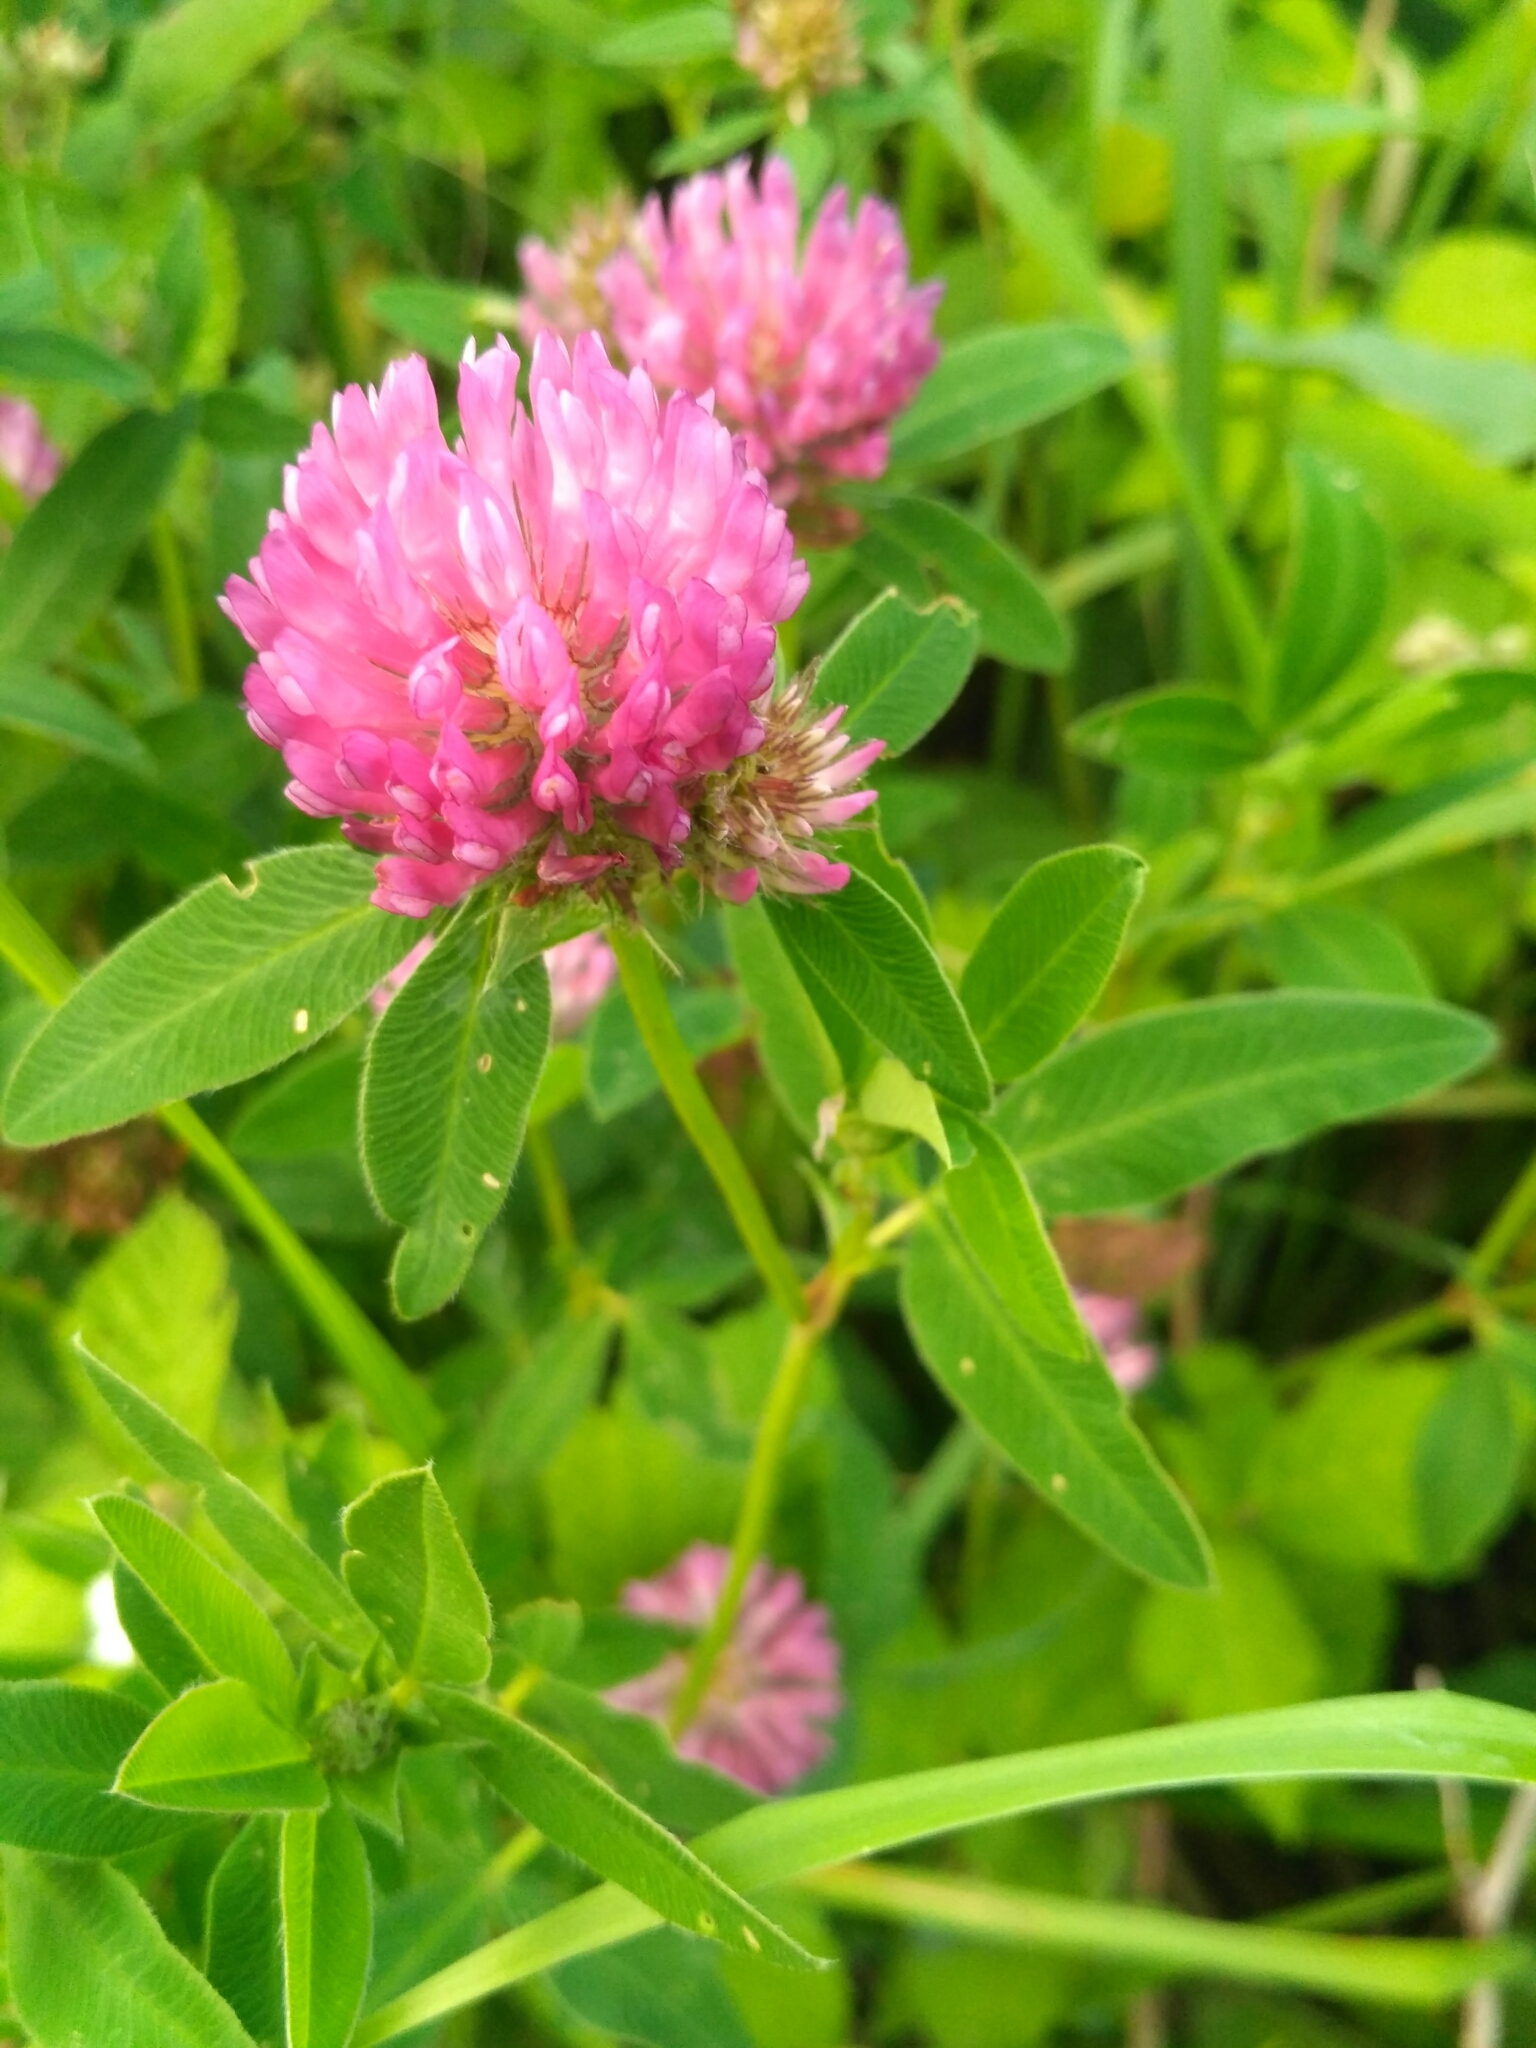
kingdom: Plantae
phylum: Tracheophyta
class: Magnoliopsida
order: Fabales
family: Fabaceae
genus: Trifolium
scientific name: Trifolium medium
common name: Zigzag clover
